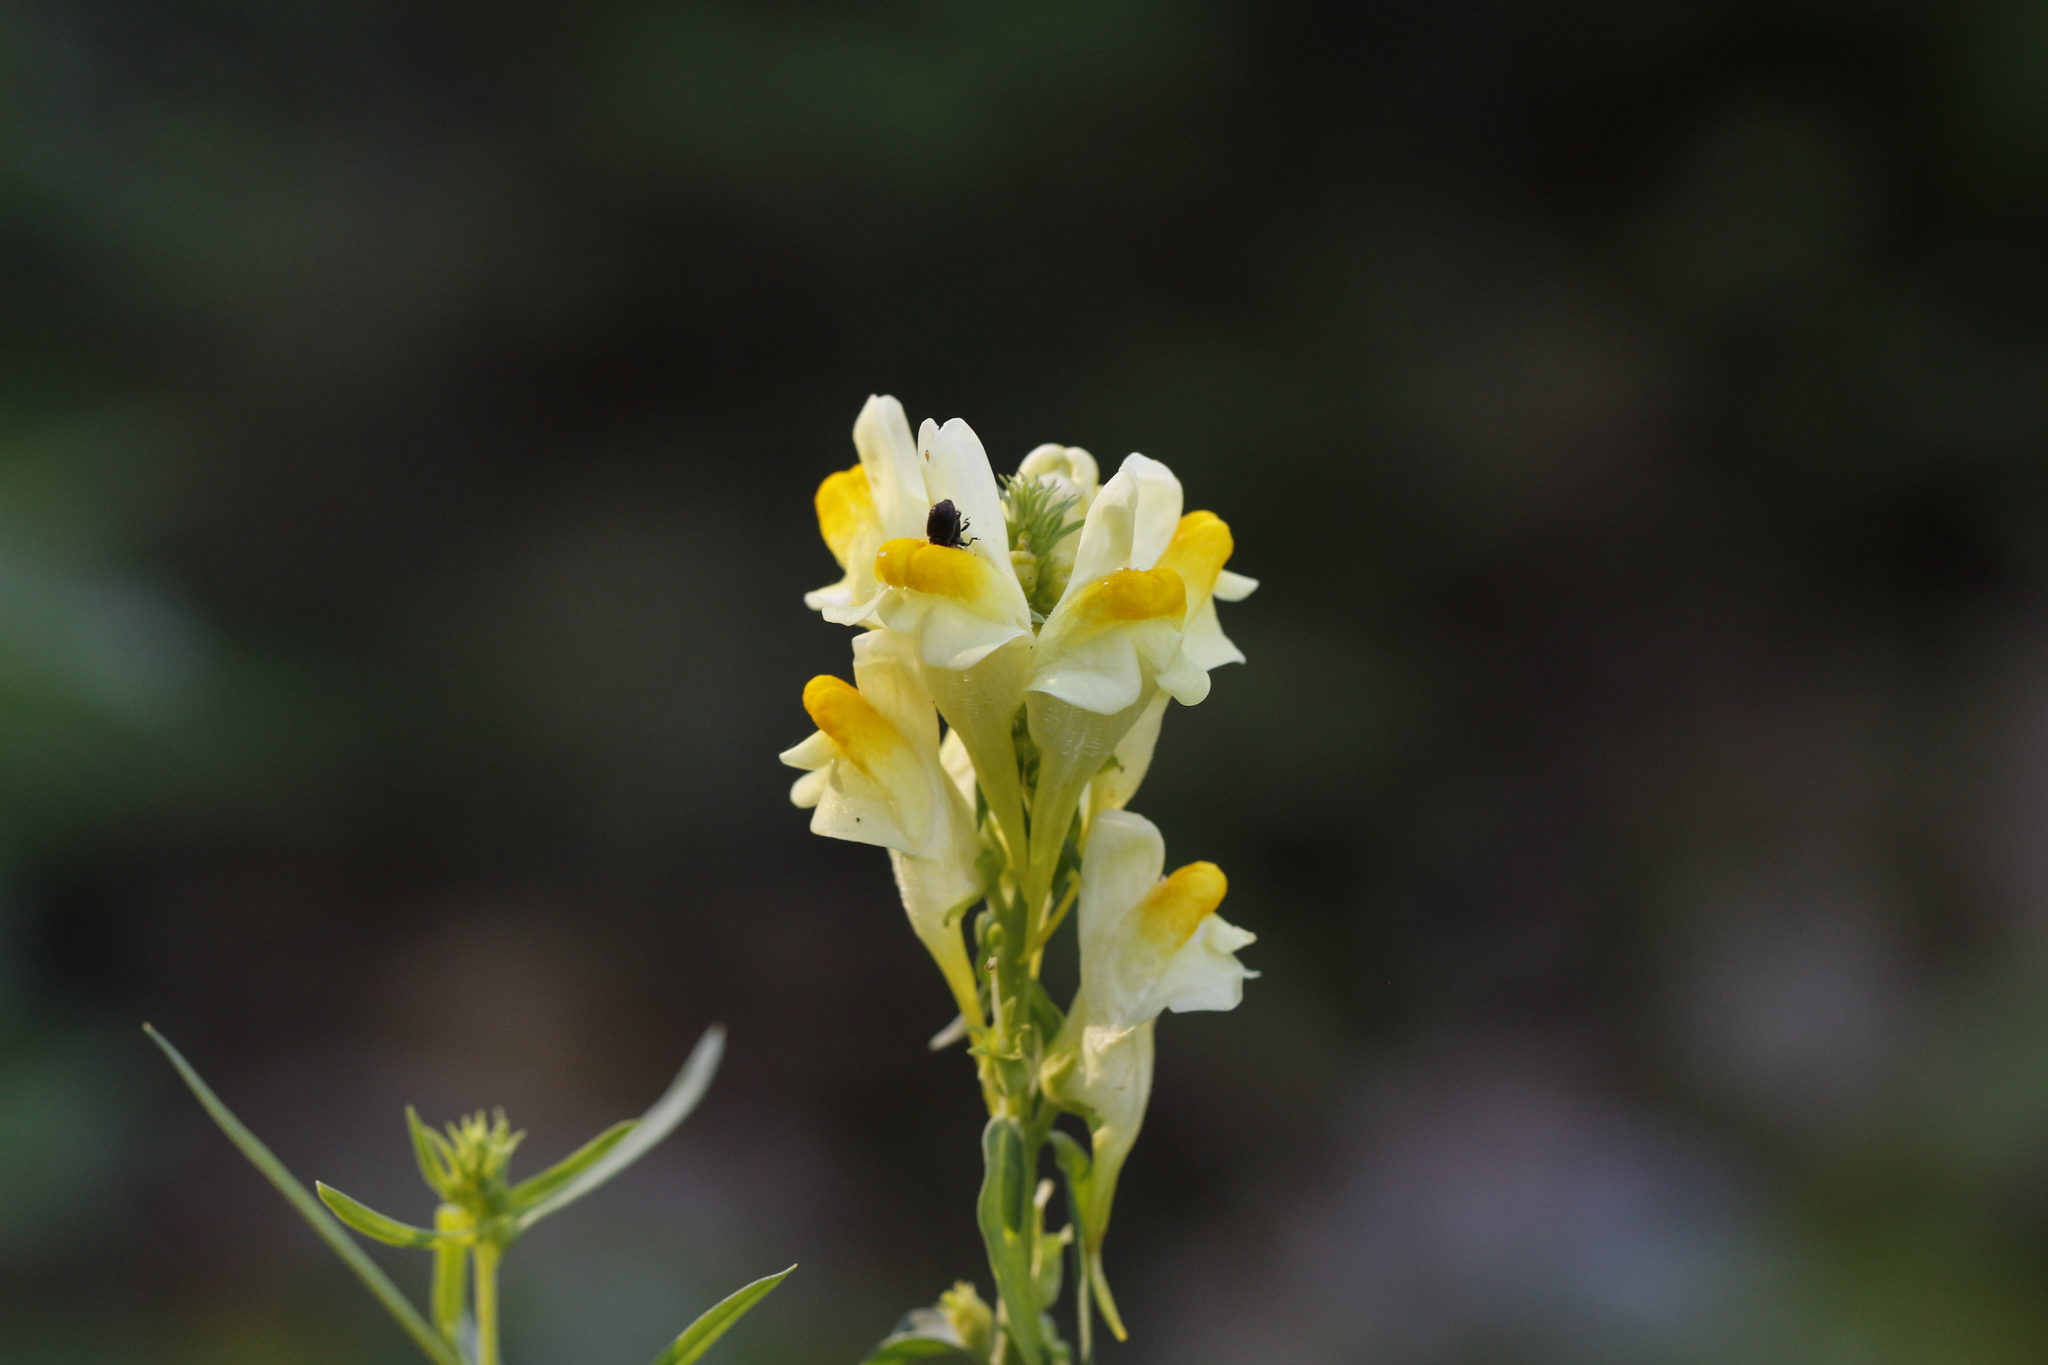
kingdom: Plantae
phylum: Tracheophyta
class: Magnoliopsida
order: Lamiales
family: Plantaginaceae
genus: Linaria
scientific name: Linaria vulgaris
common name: Butter and eggs
